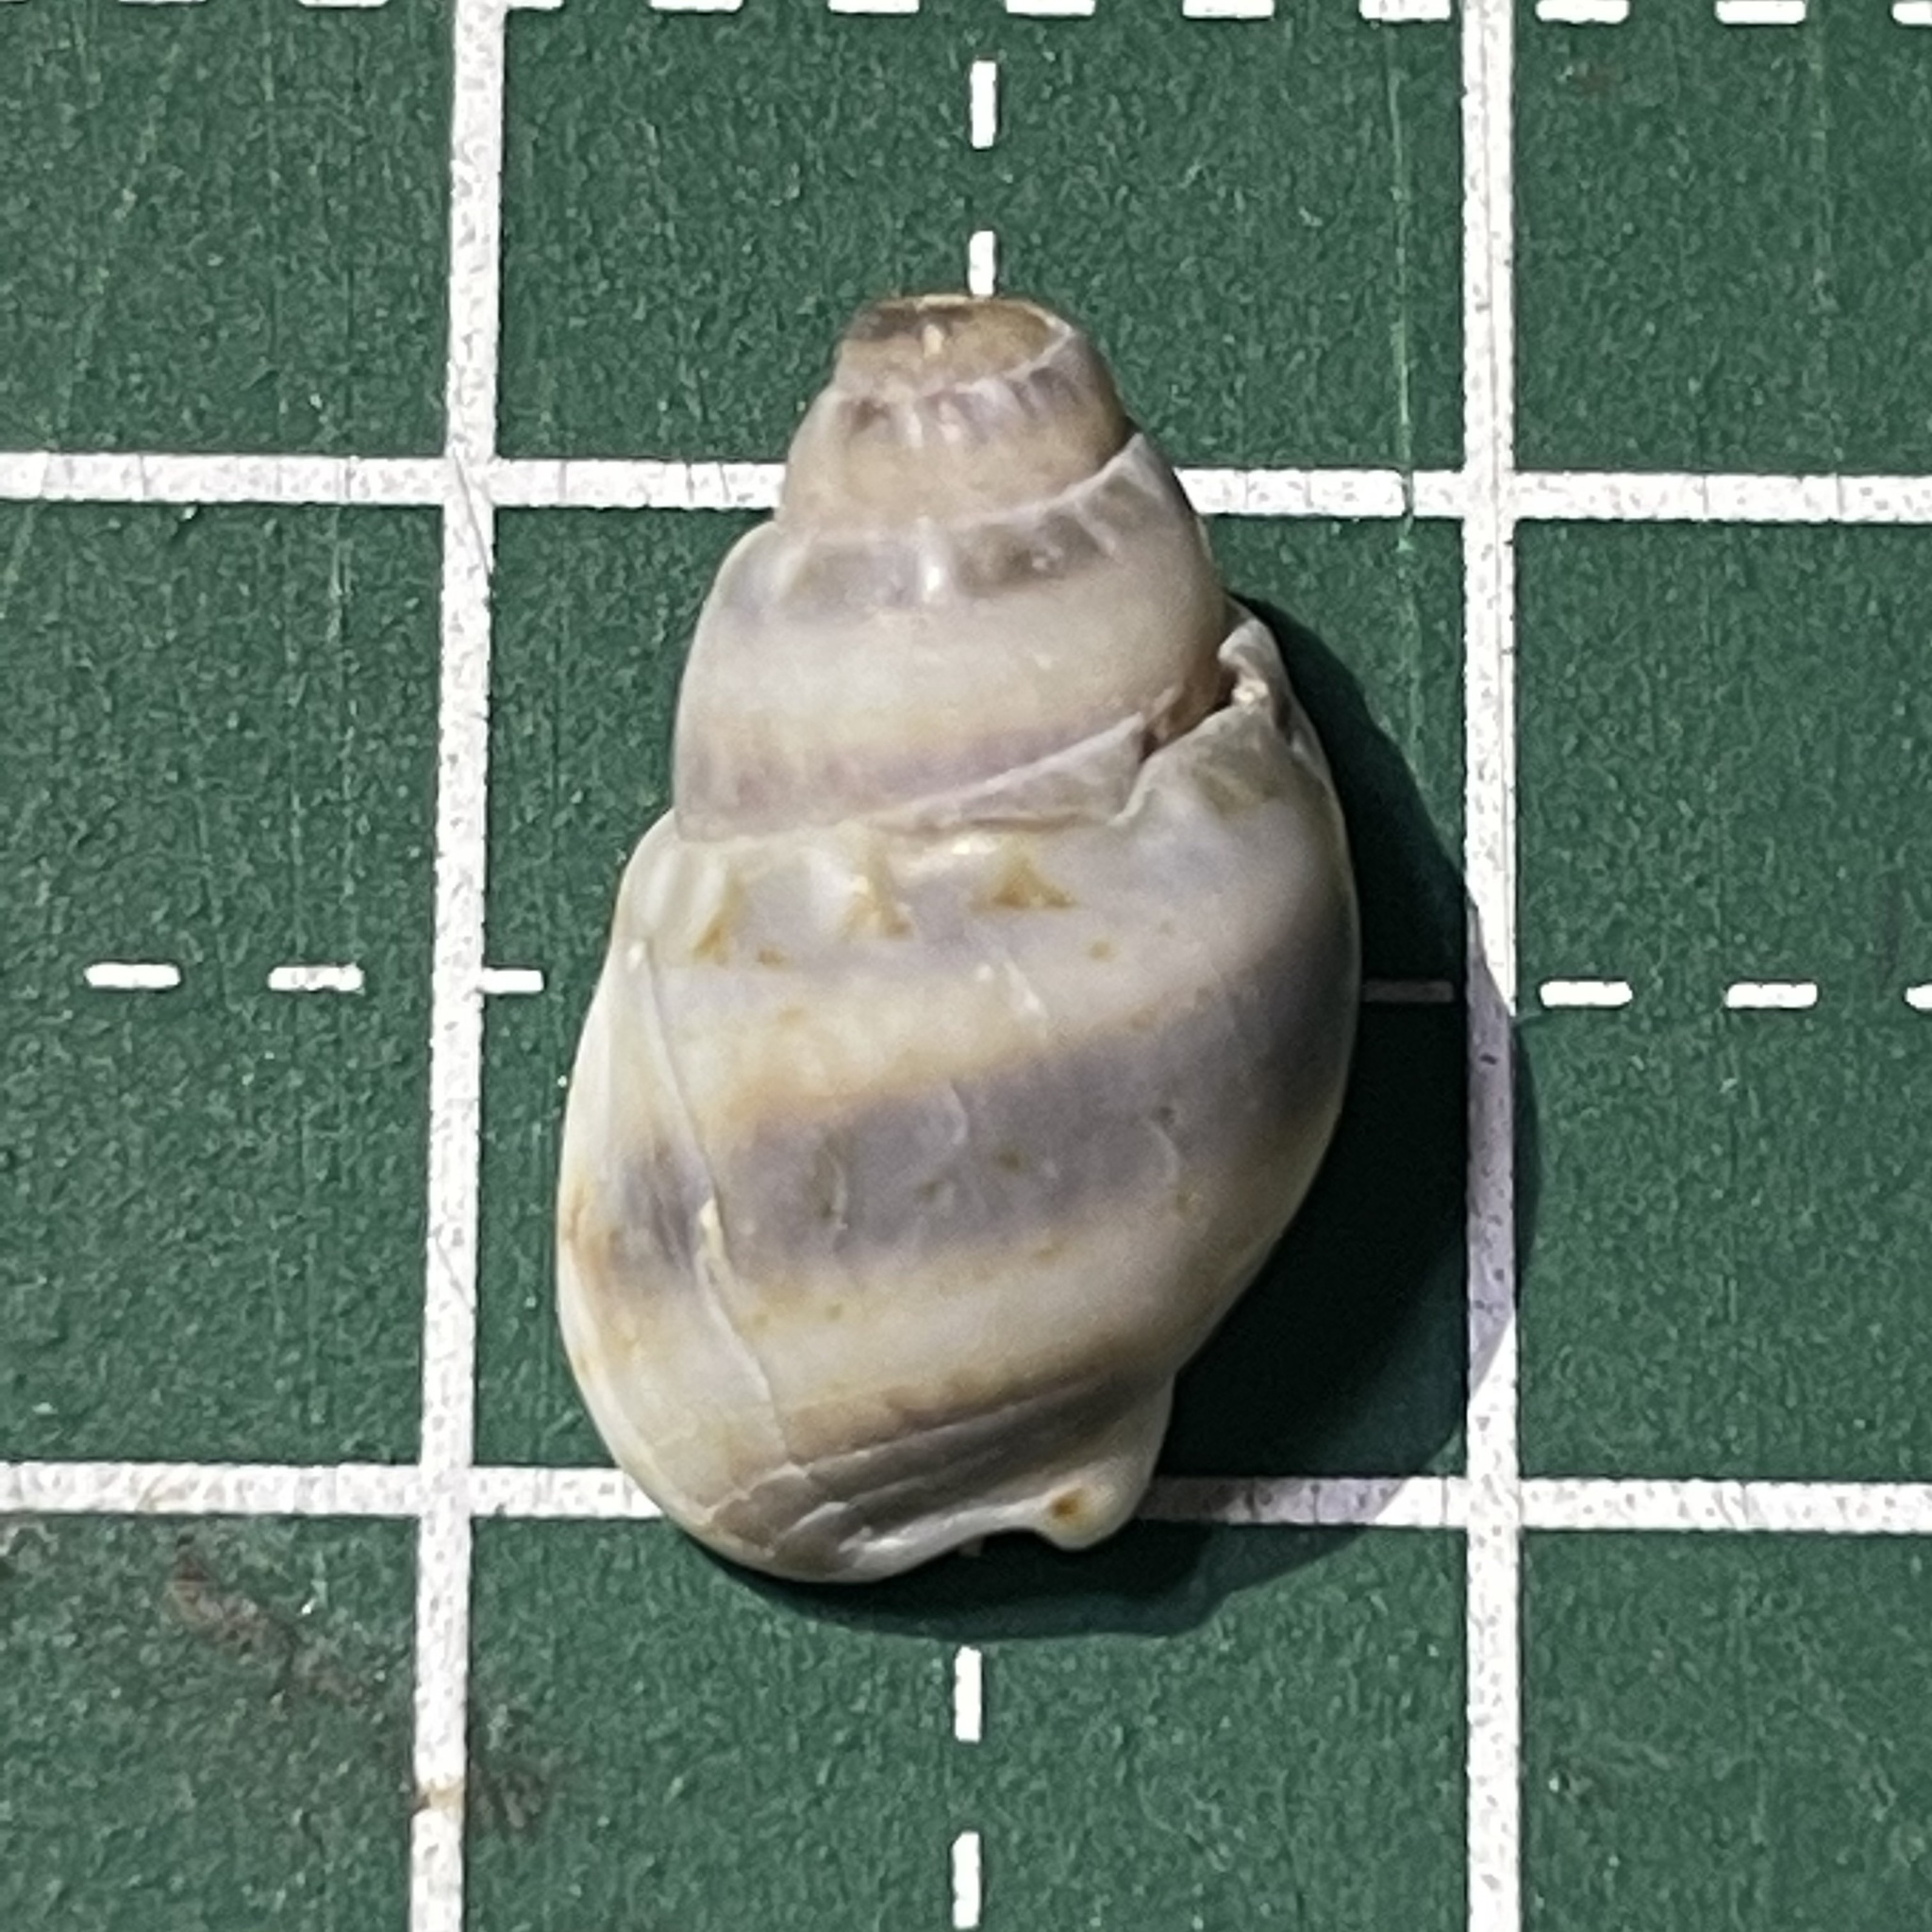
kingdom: Animalia
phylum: Mollusca
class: Gastropoda
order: Neogastropoda
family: Nassariidae
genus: Nassarius
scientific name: Nassarius reeveanus
